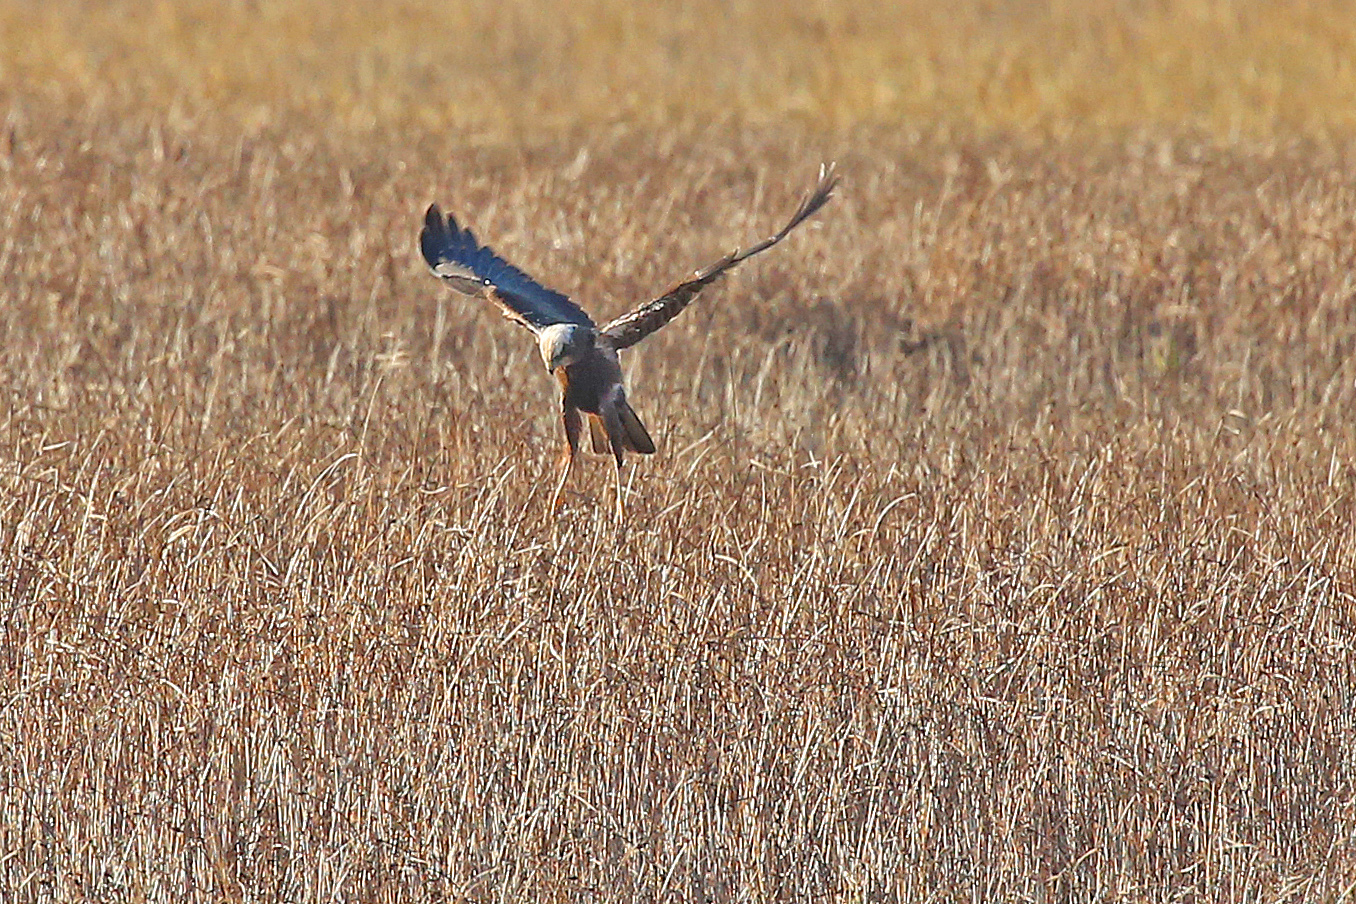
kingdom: Animalia
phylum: Chordata
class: Aves
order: Accipitriformes
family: Accipitridae
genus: Circus
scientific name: Circus aeruginosus
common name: Western marsh harrier
